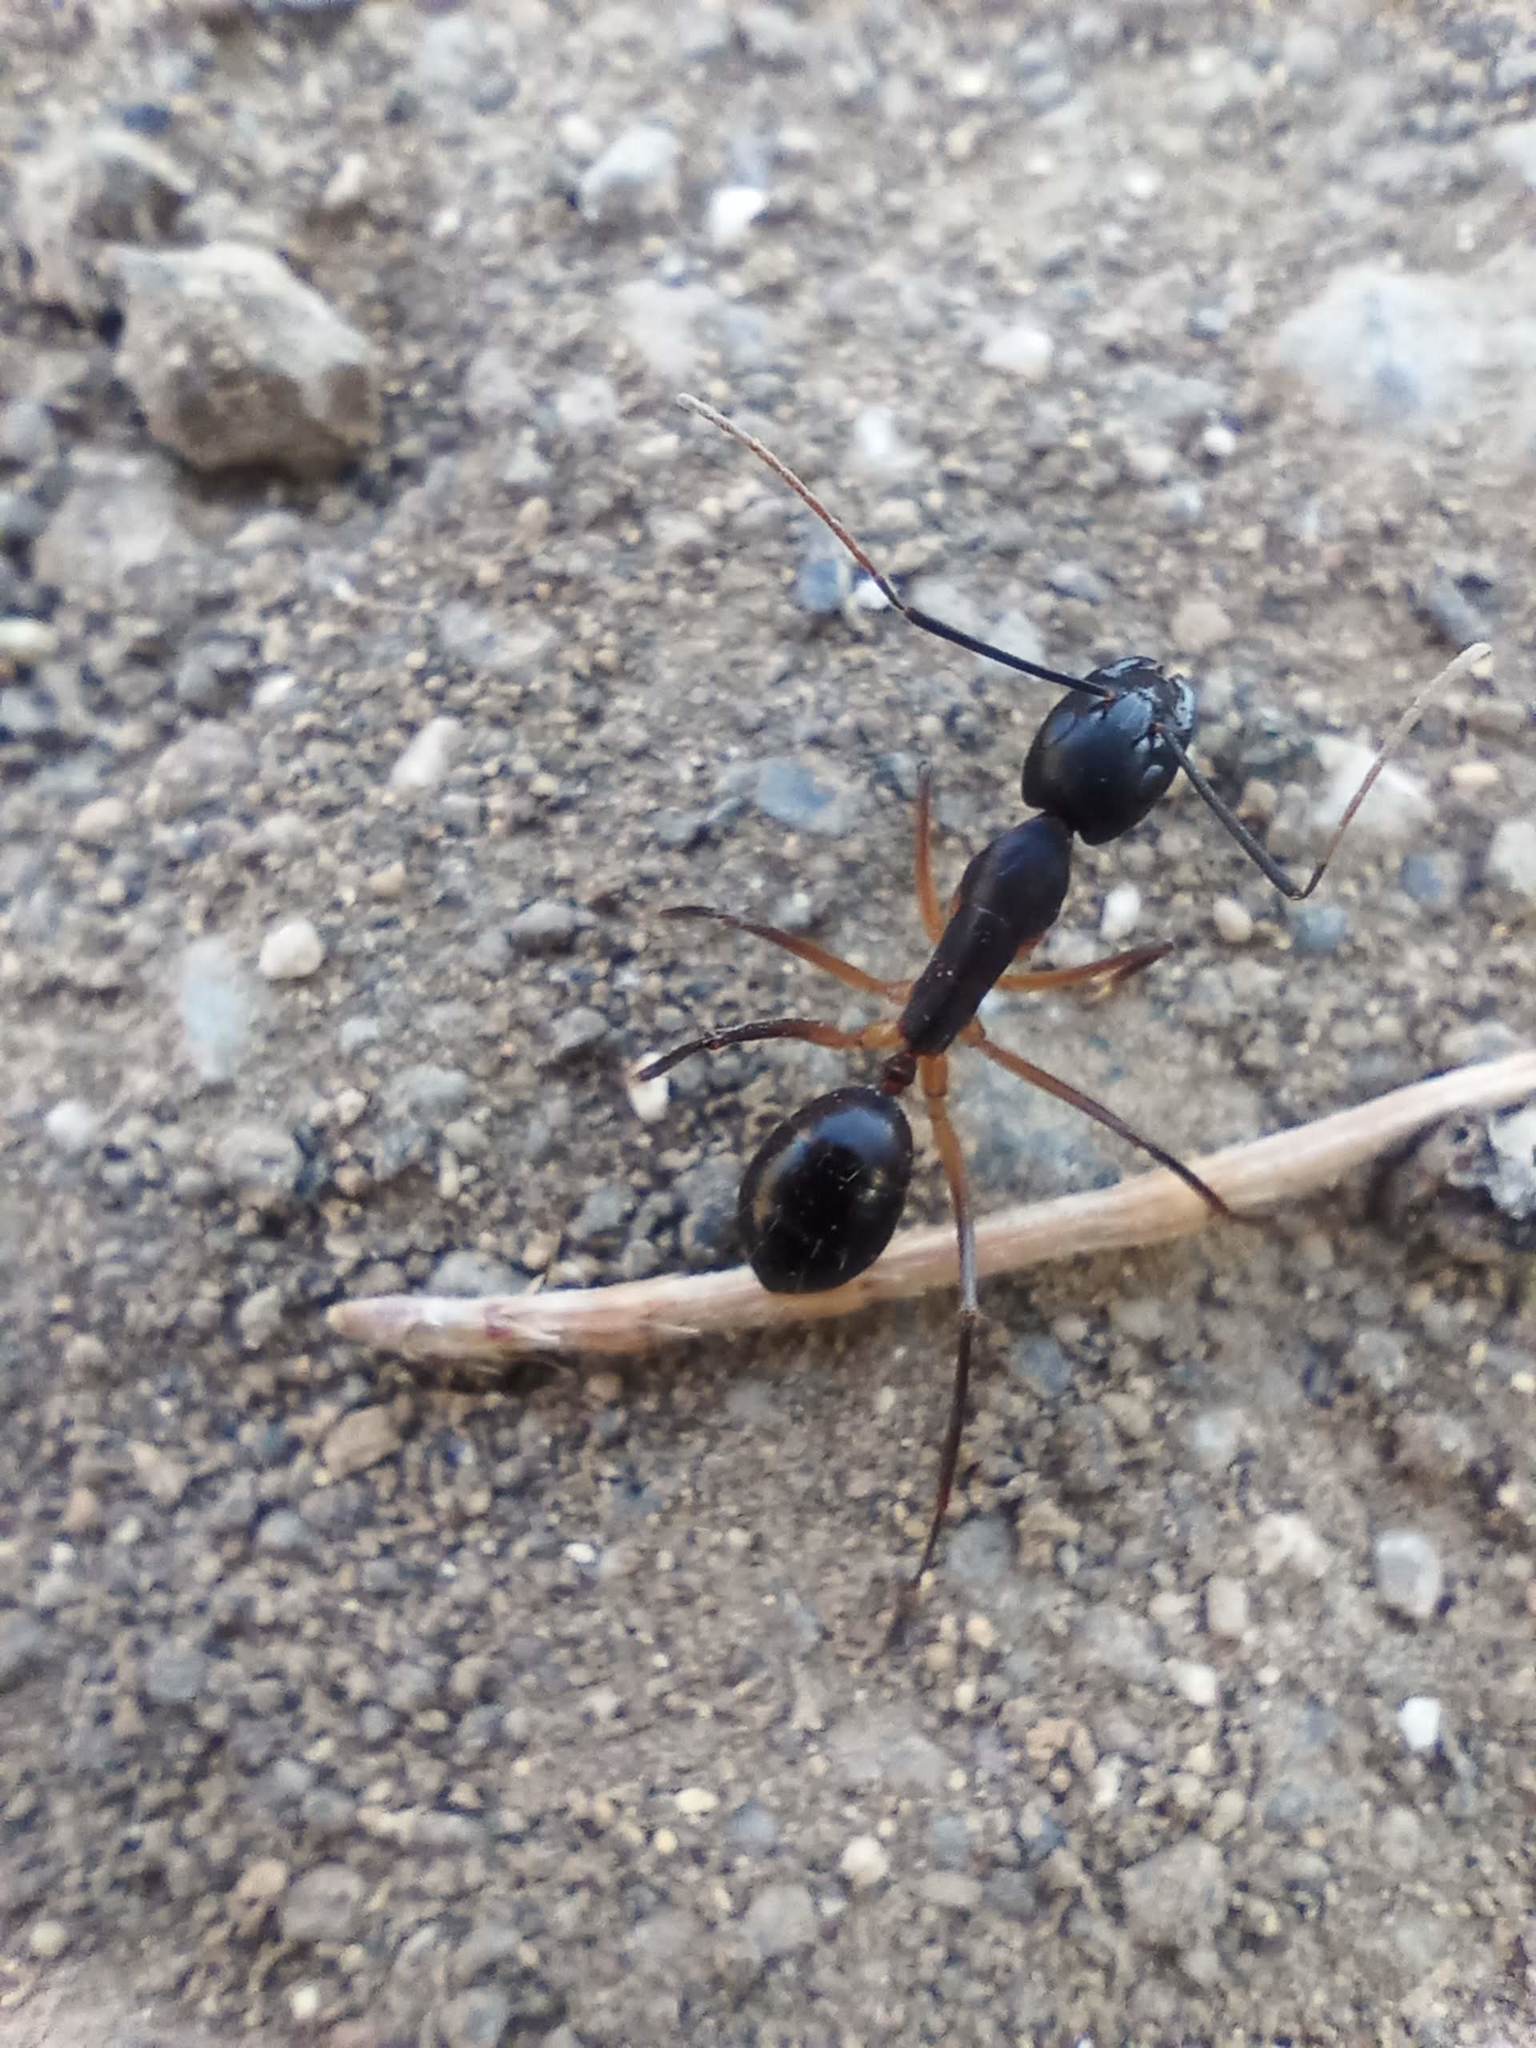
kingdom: Animalia
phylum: Arthropoda
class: Insecta
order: Hymenoptera
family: Formicidae
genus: Camponotus
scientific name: Camponotus brunni
